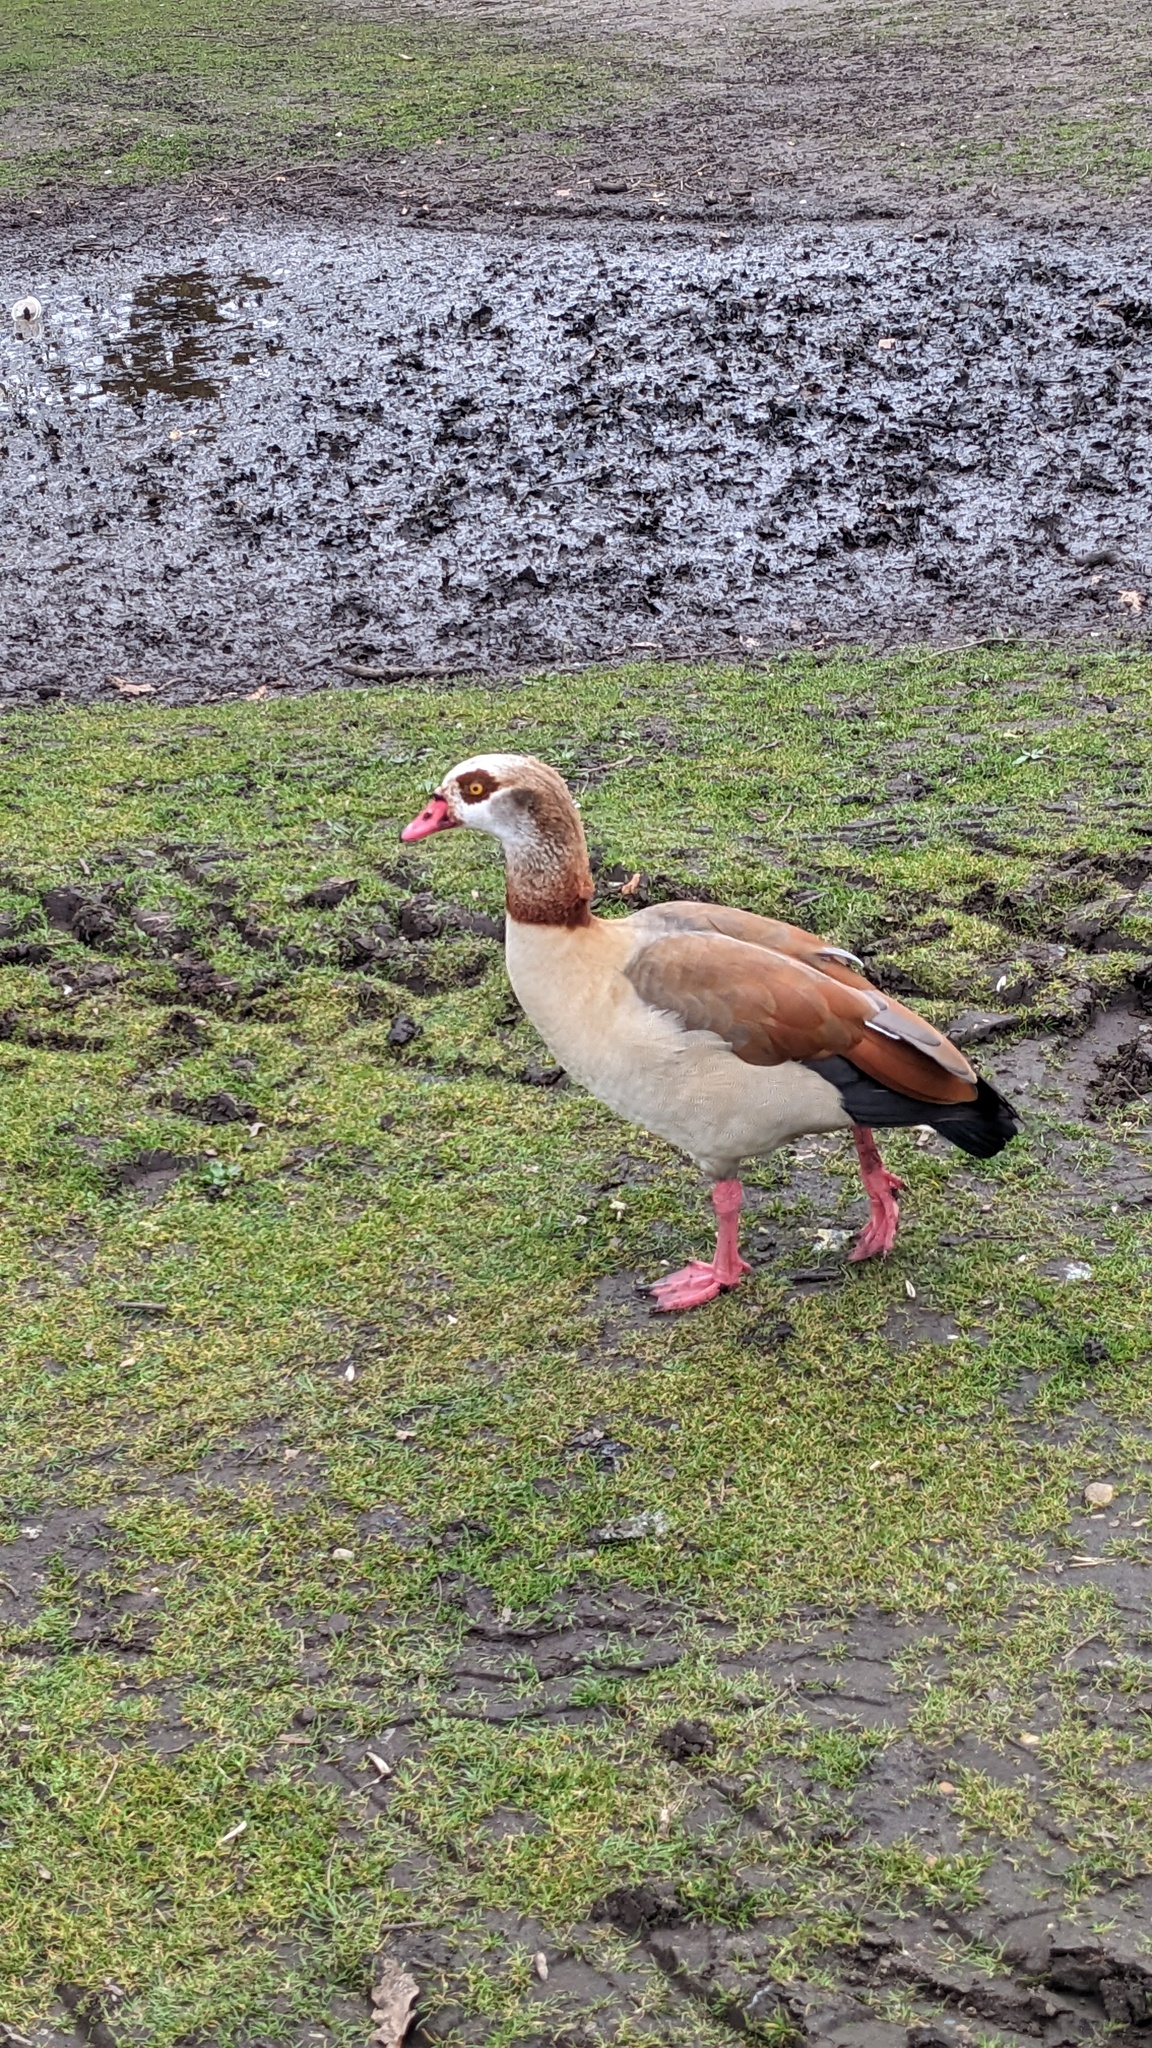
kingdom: Animalia
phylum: Chordata
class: Aves
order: Anseriformes
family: Anatidae
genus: Alopochen
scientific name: Alopochen aegyptiaca
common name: Egyptian goose
